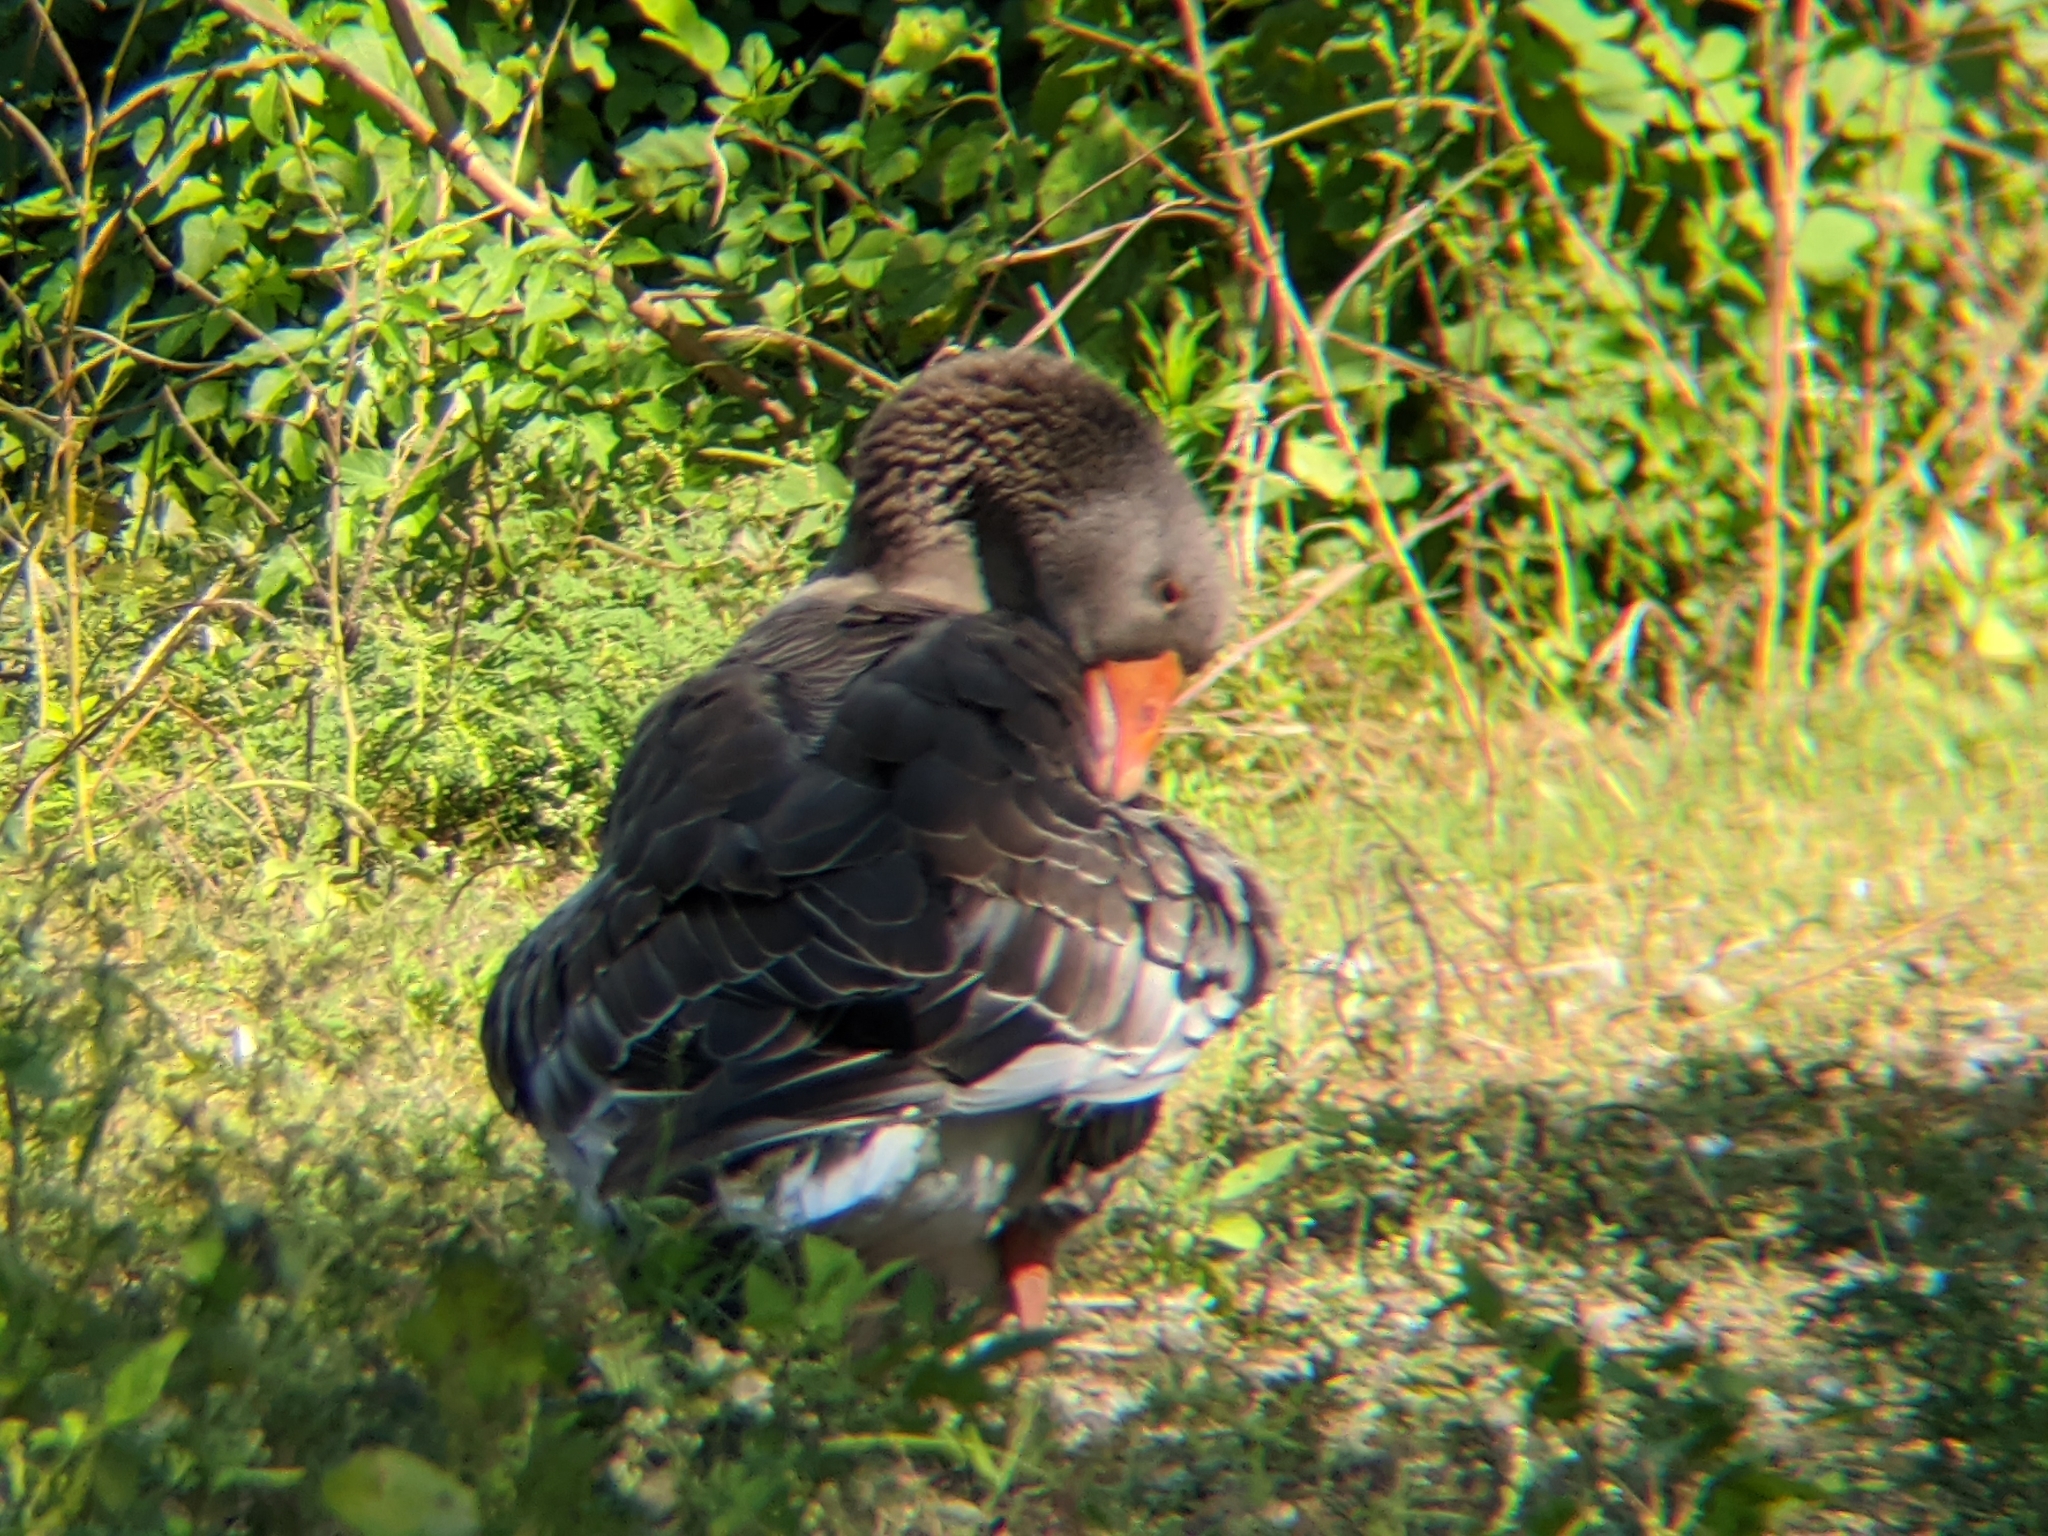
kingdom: Animalia
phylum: Chordata
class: Aves
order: Anseriformes
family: Anatidae
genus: Anser
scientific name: Anser anser
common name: Greylag goose
